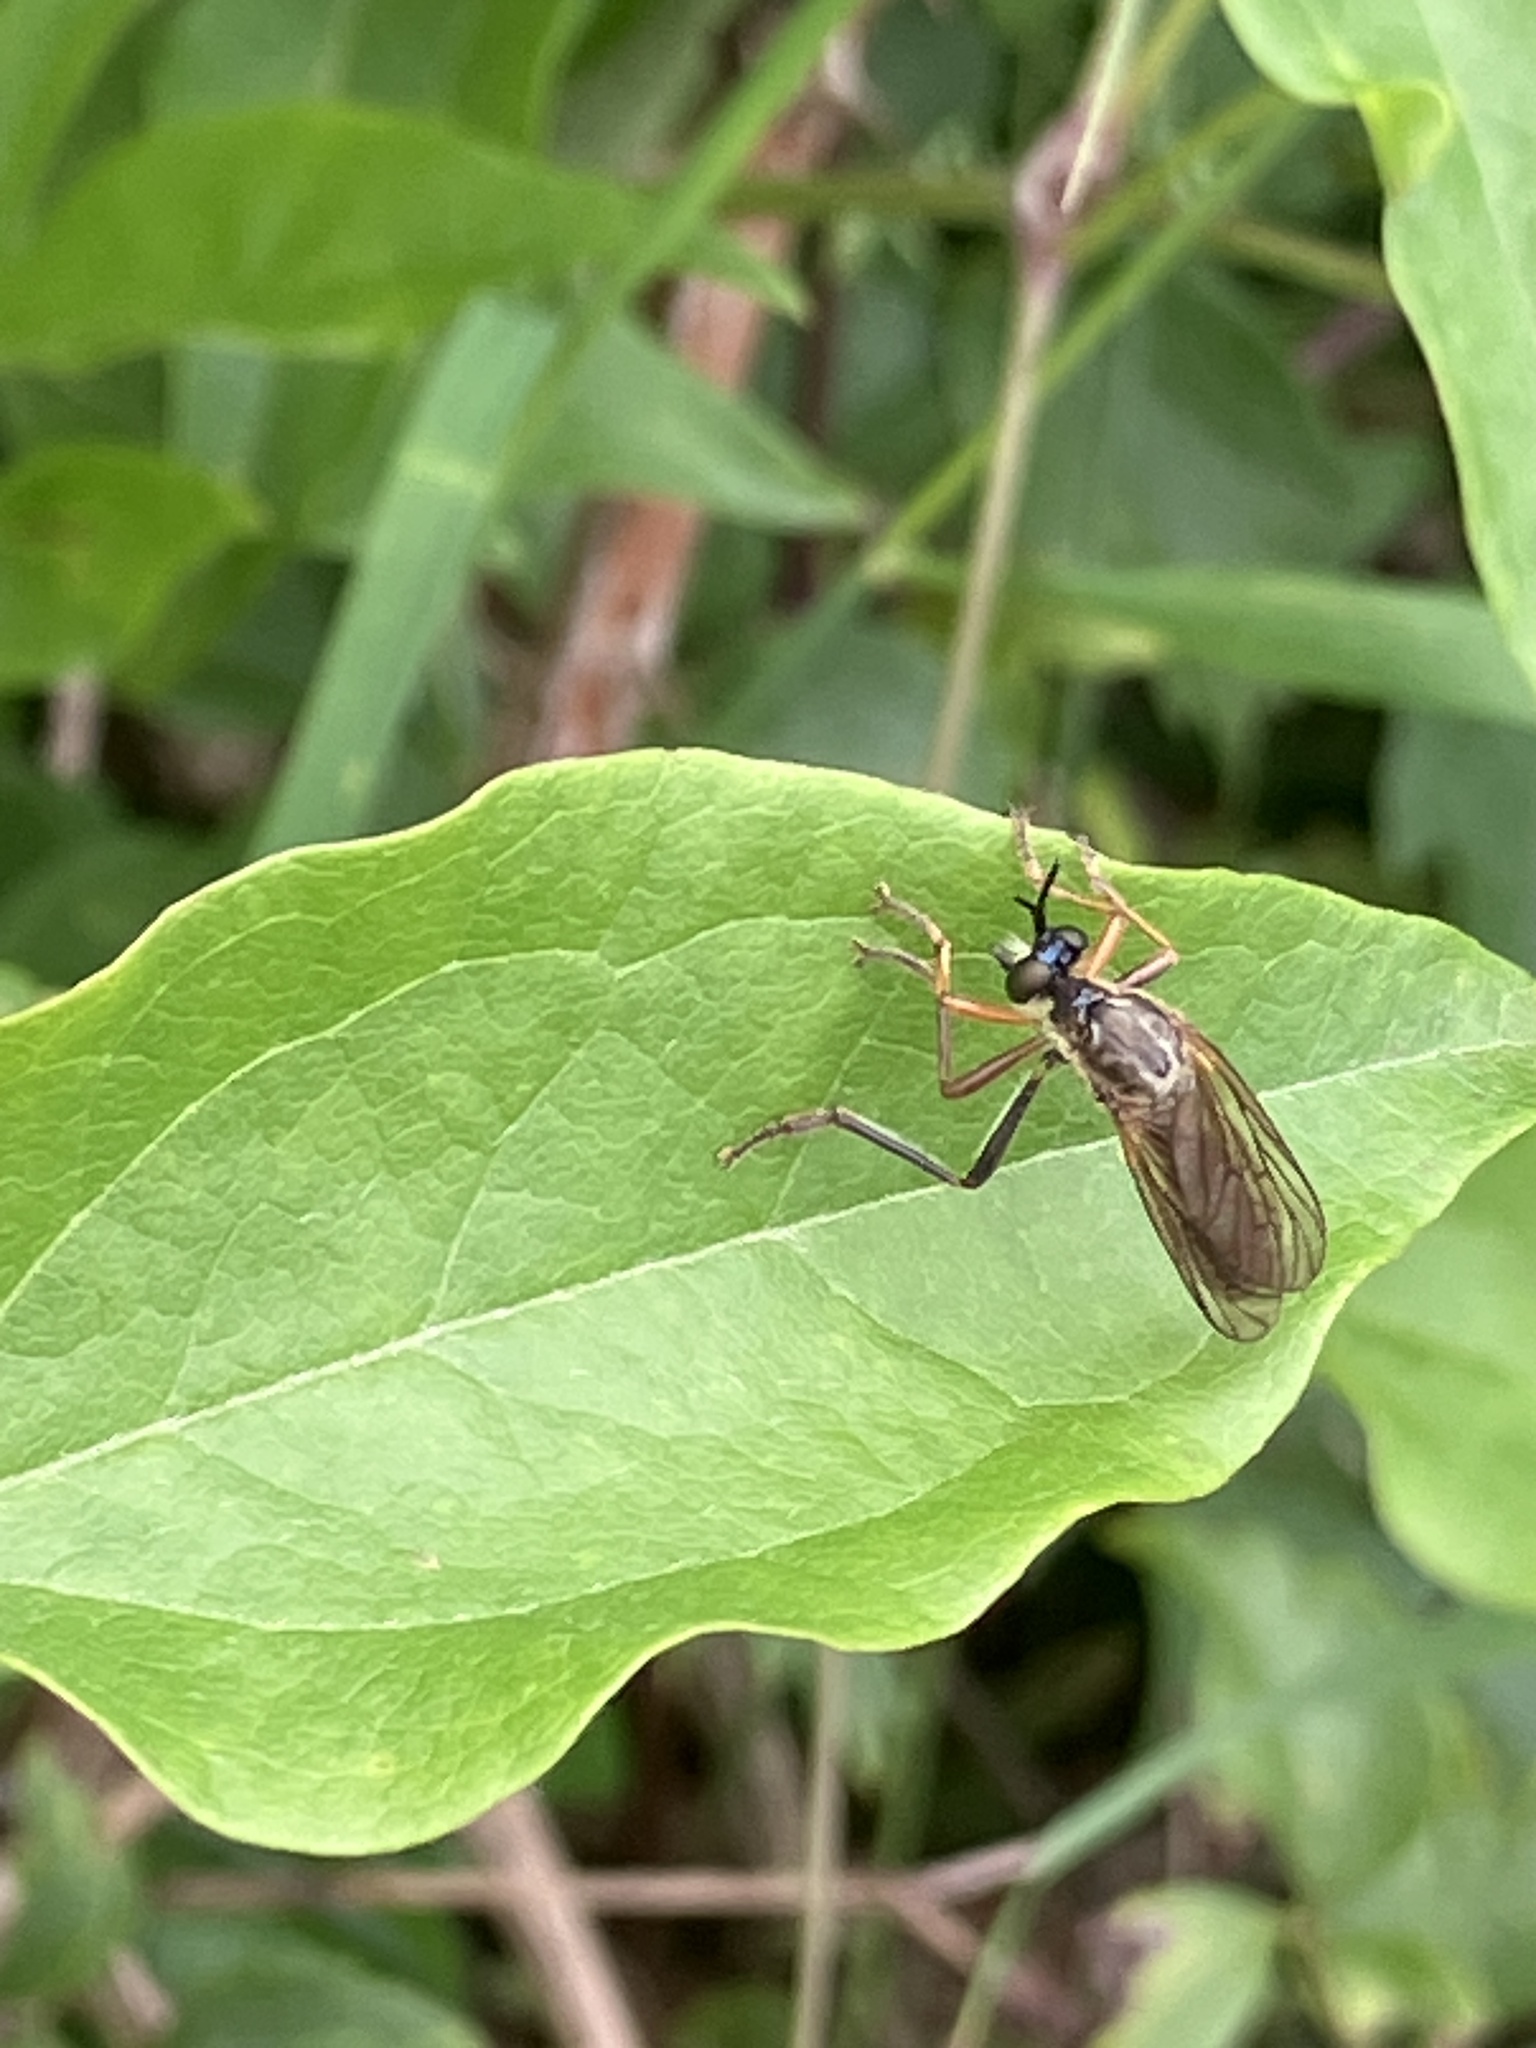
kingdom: Animalia
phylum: Arthropoda
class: Insecta
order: Diptera
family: Asilidae
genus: Dioctria
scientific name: Dioctria rufipes
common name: Common red-legged robberfly
